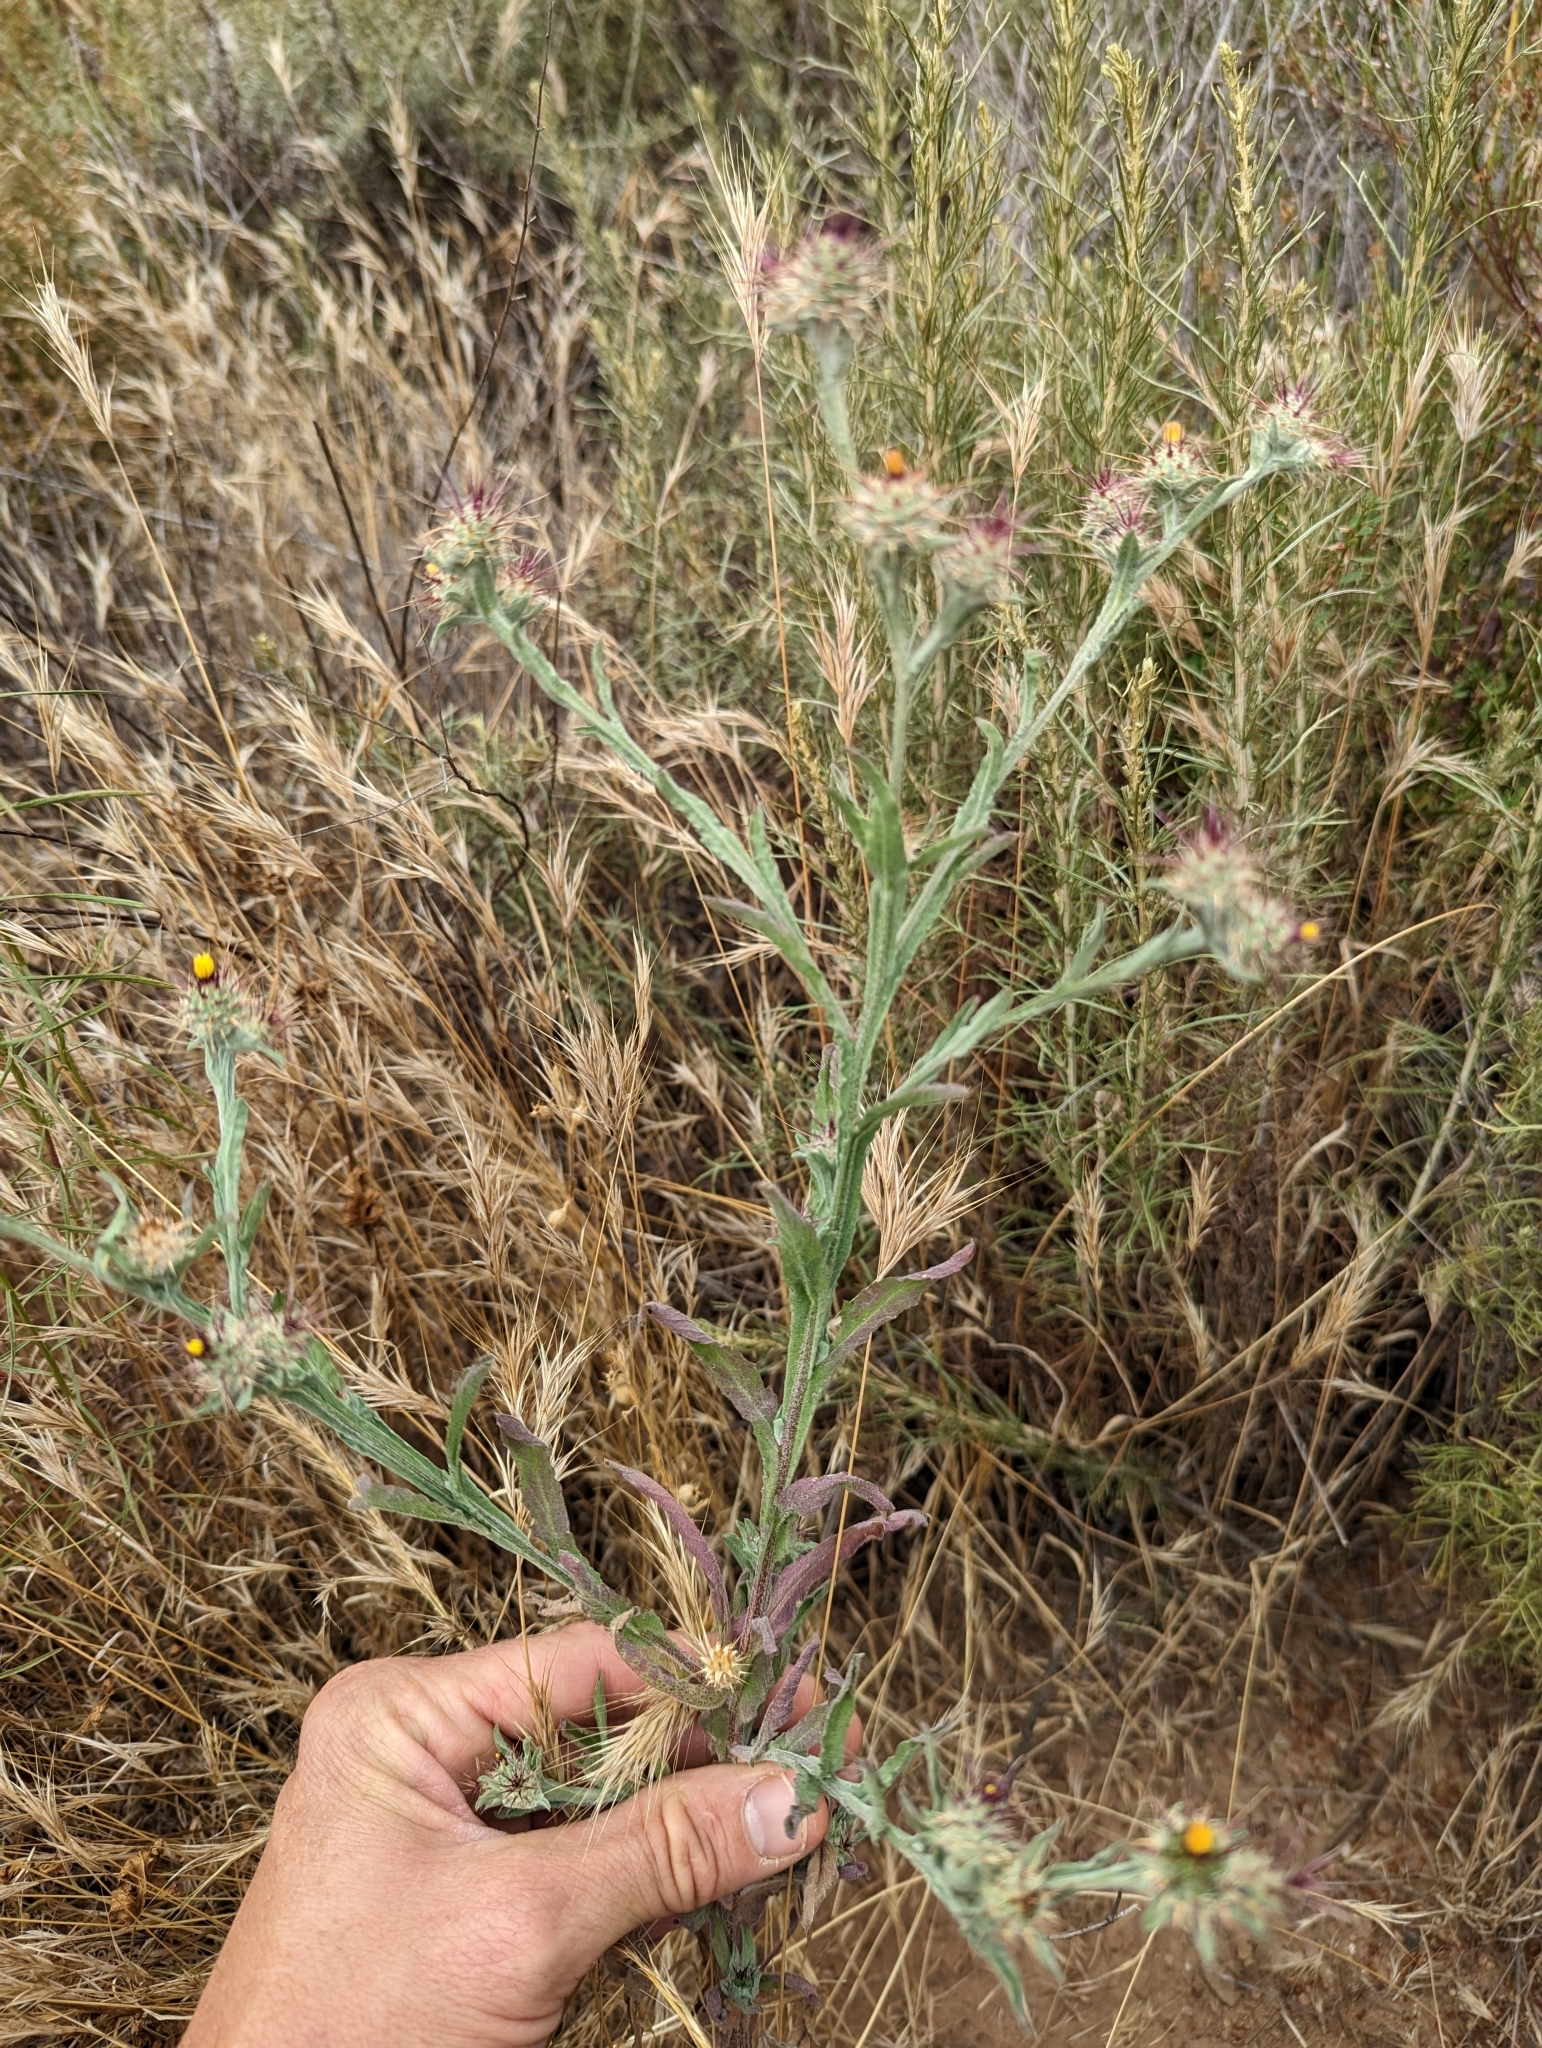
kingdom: Plantae
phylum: Tracheophyta
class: Magnoliopsida
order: Asterales
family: Asteraceae
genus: Centaurea
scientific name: Centaurea melitensis
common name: Maltese star-thistle
